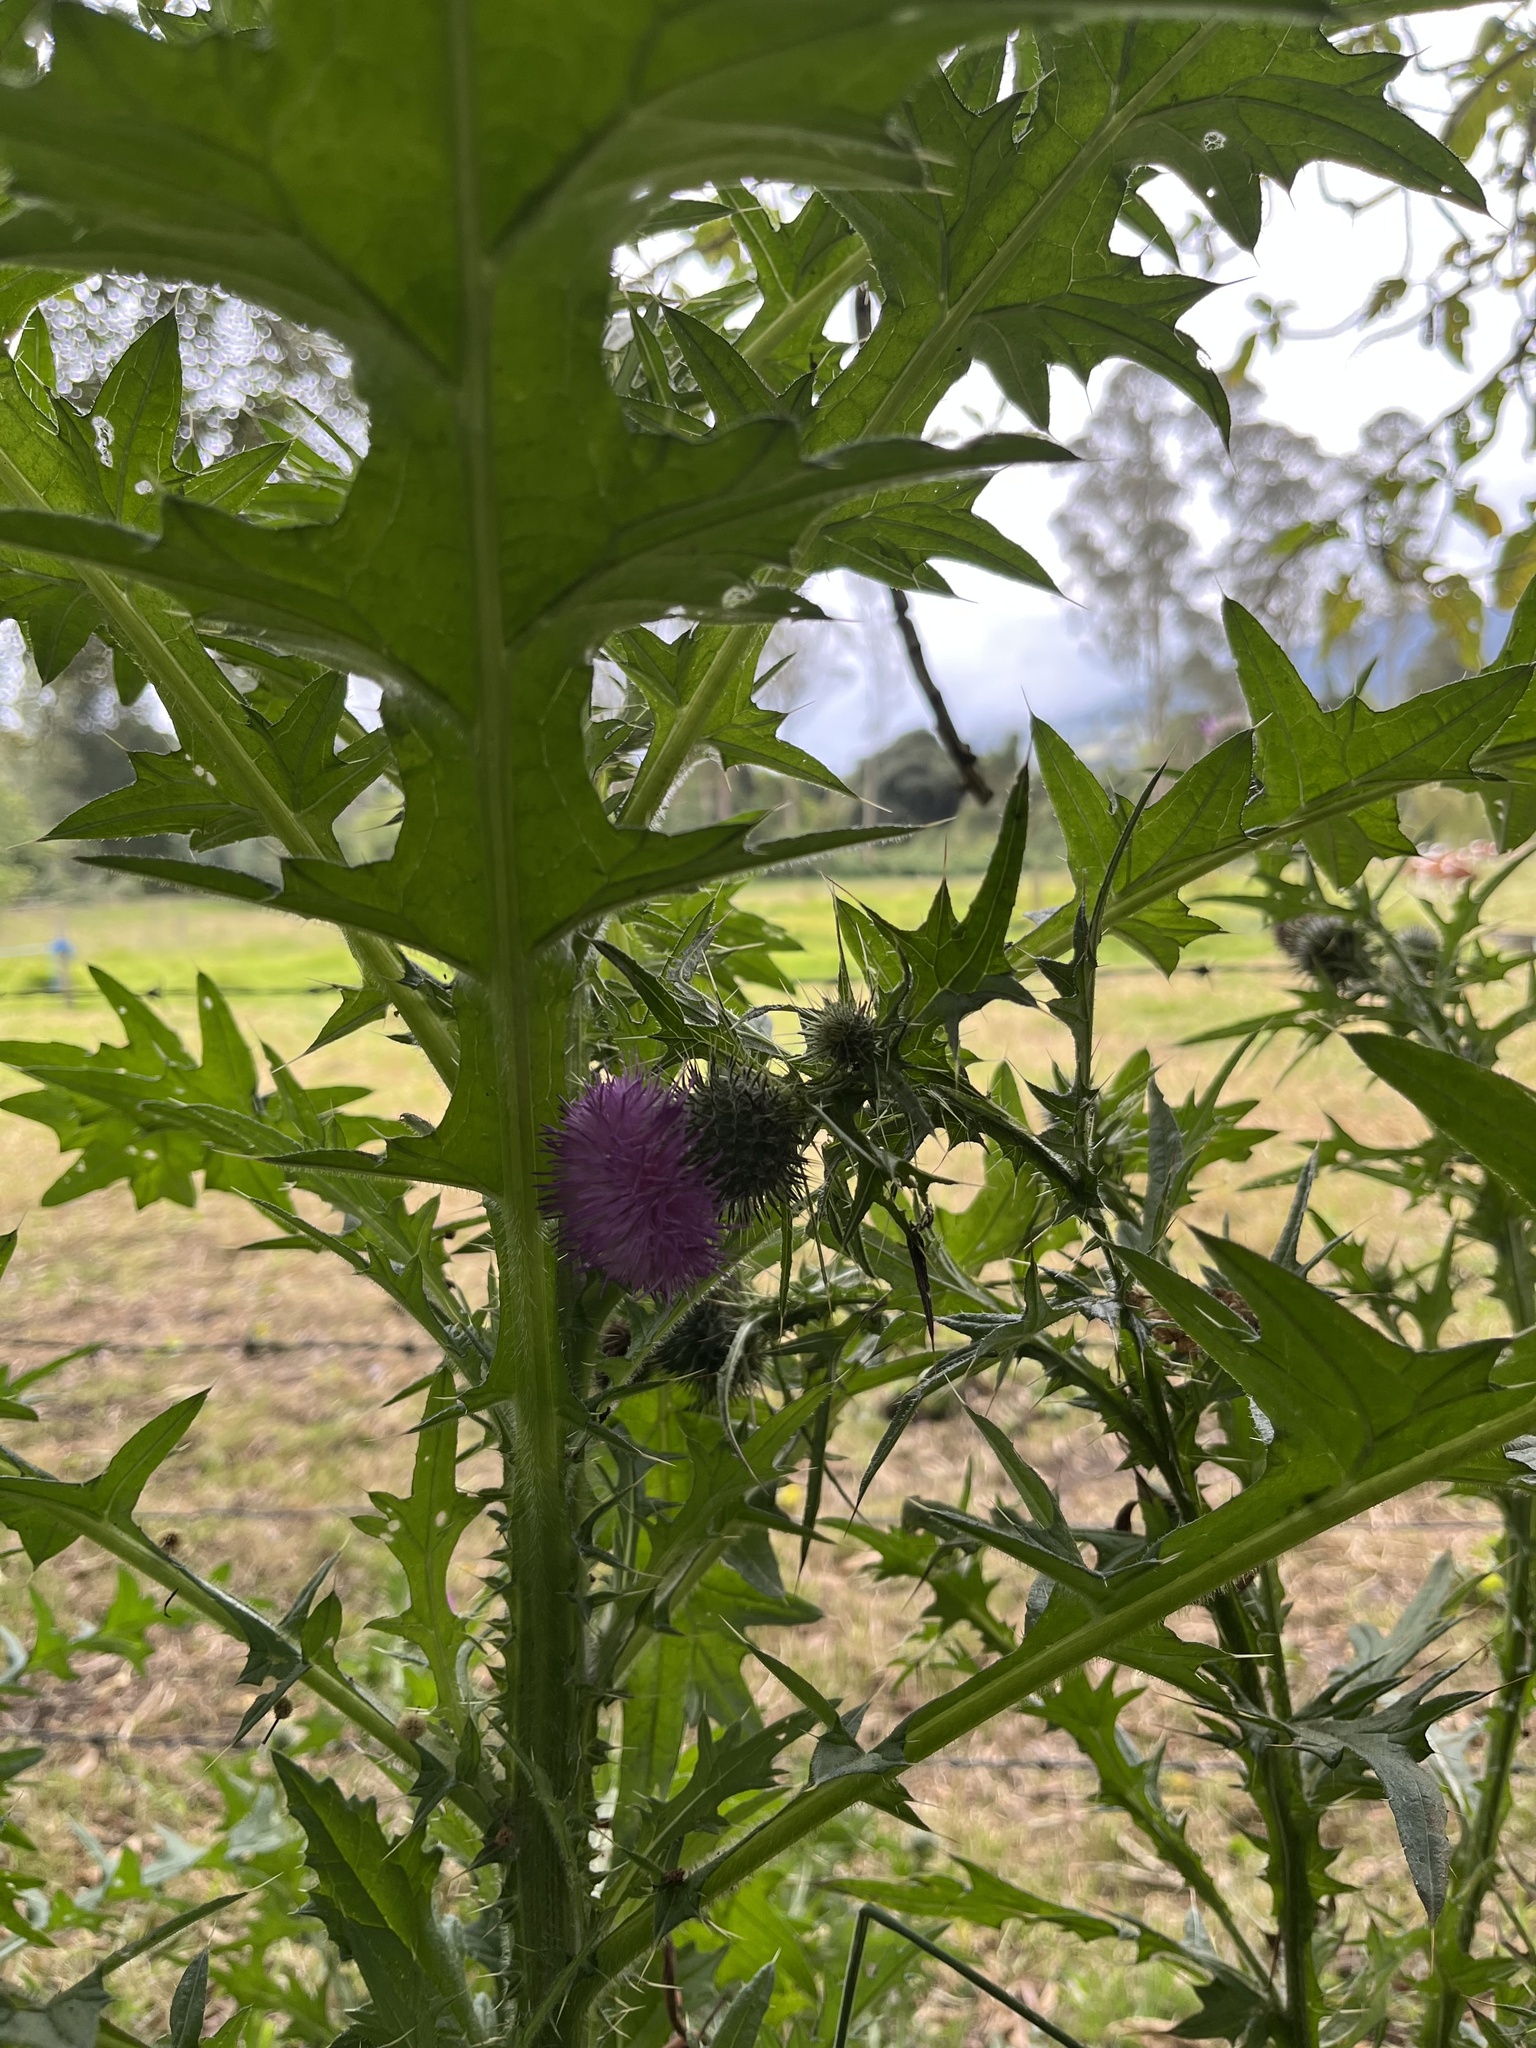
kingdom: Plantae
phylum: Tracheophyta
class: Magnoliopsida
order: Asterales
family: Asteraceae
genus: Cirsium
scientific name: Cirsium vulgare
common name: Bull thistle
